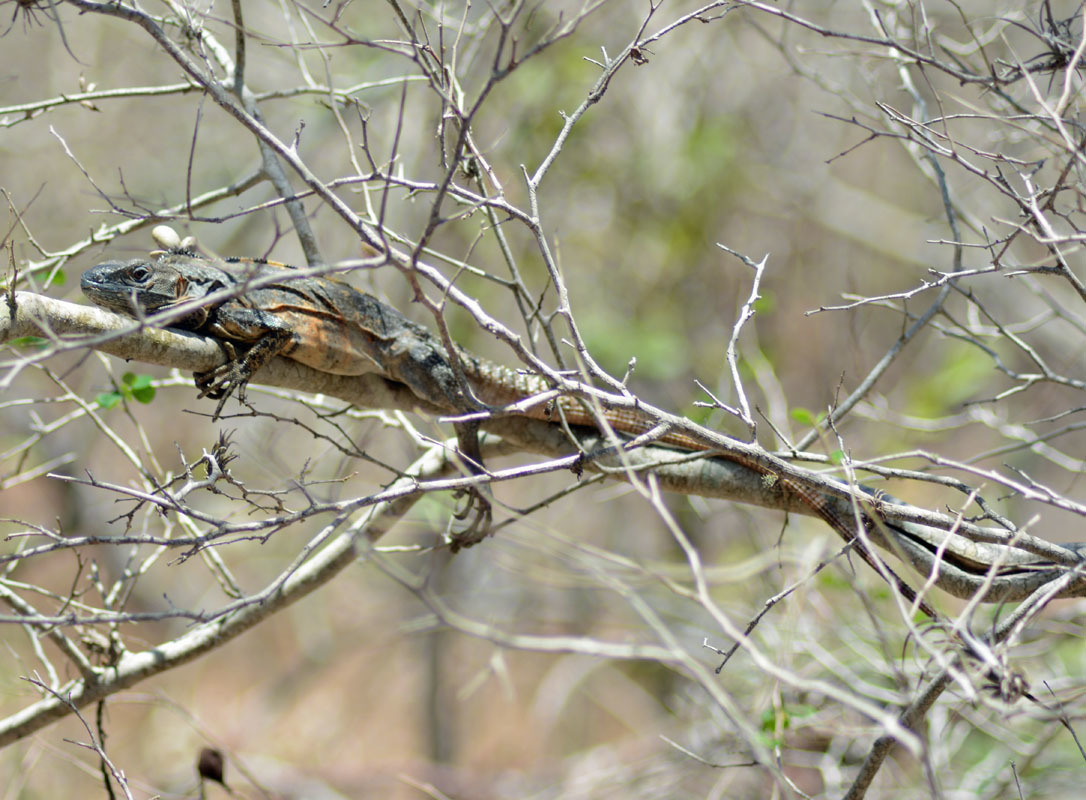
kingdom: Animalia
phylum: Chordata
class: Squamata
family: Iguanidae
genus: Ctenosaura
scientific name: Ctenosaura pectinata
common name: Guerreran spiny-tailed iguana
